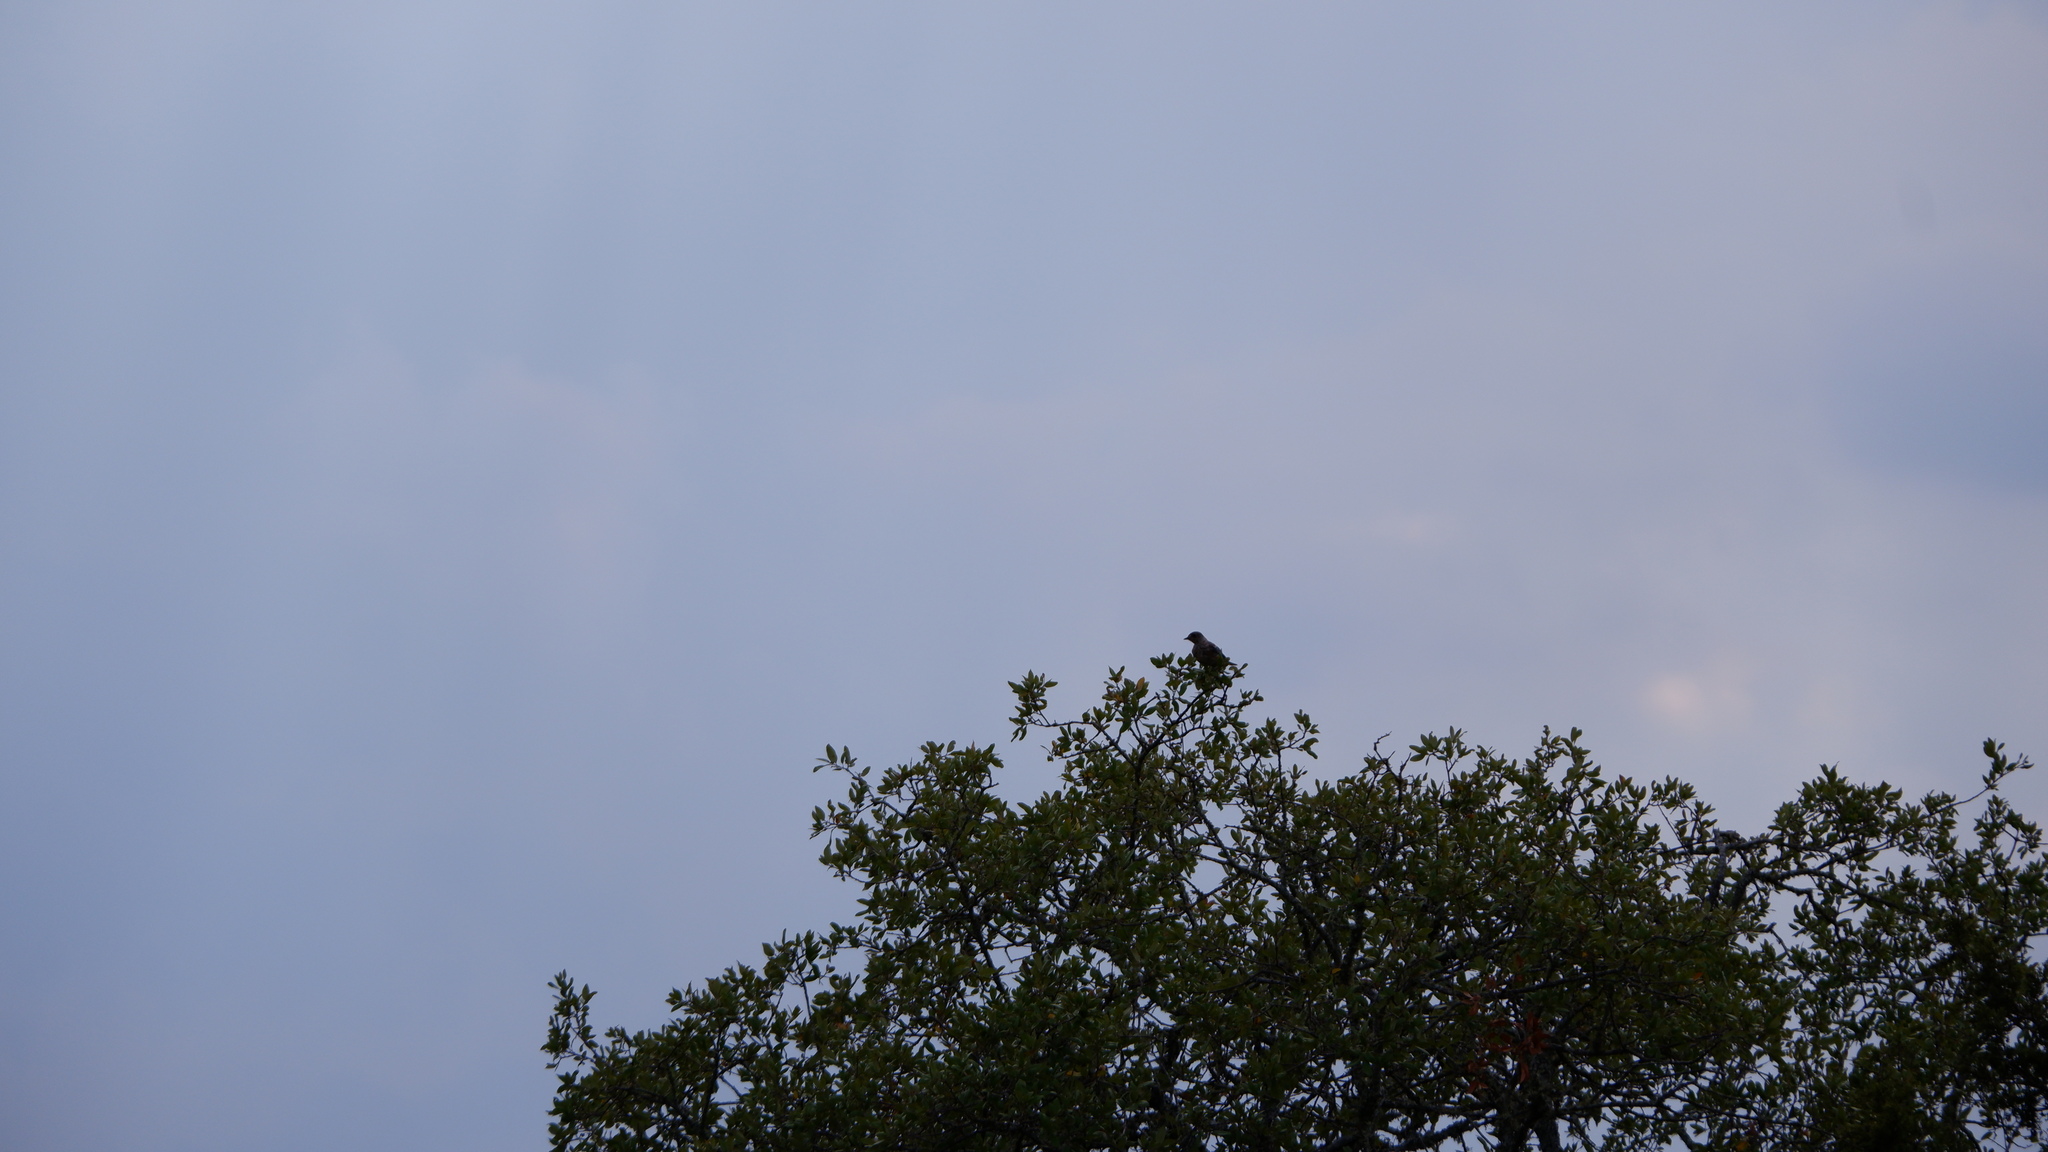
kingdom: Animalia
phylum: Chordata
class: Aves
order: Passeriformes
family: Turdidae
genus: Sialia
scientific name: Sialia sialis
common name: Eastern bluebird
